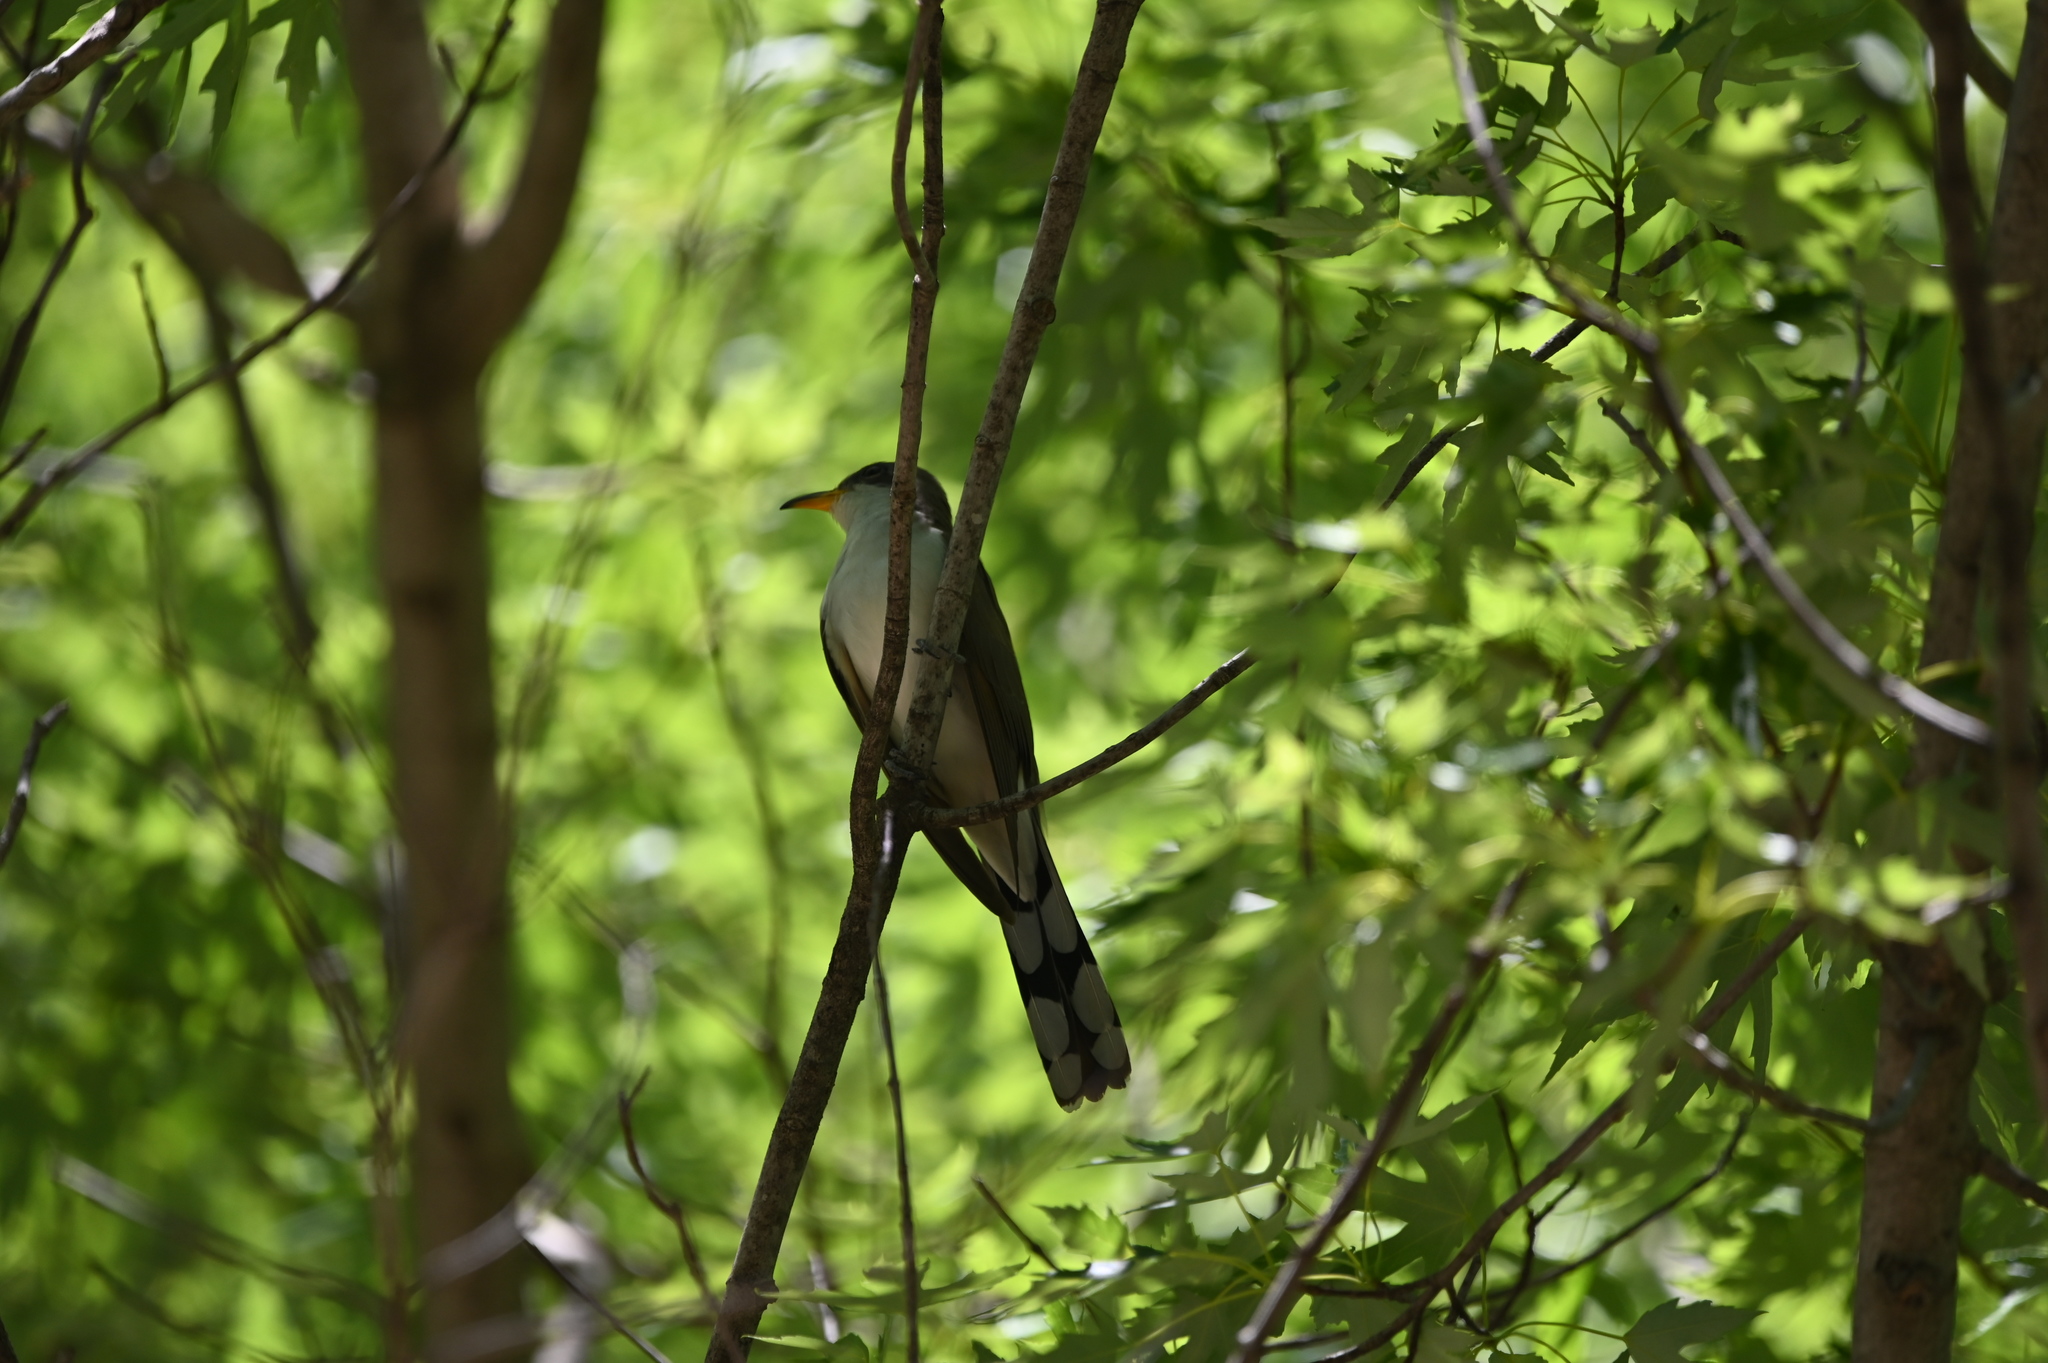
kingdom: Animalia
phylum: Chordata
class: Aves
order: Cuculiformes
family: Cuculidae
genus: Coccyzus
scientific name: Coccyzus americanus
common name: Yellow-billed cuckoo
